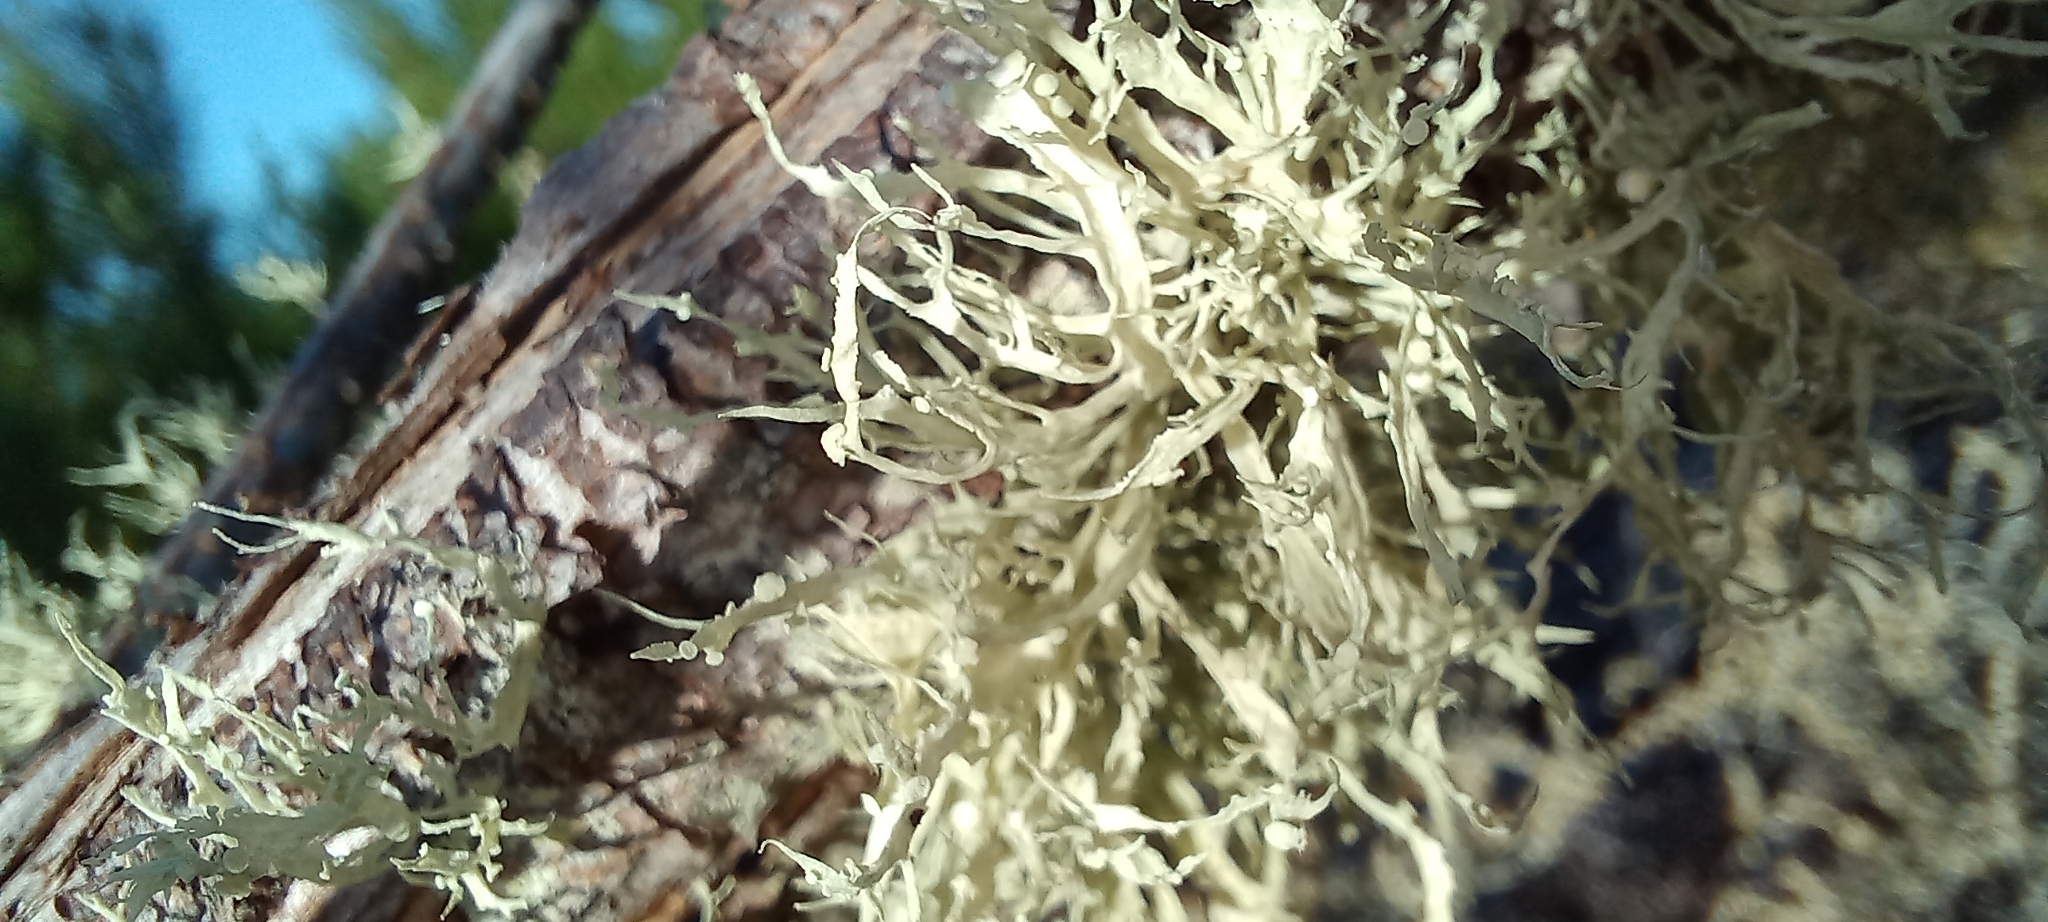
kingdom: Fungi
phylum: Ascomycota
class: Lecanoromycetes
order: Lecanorales
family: Ramalinaceae
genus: Ramalina
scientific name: Ramalina celastri
